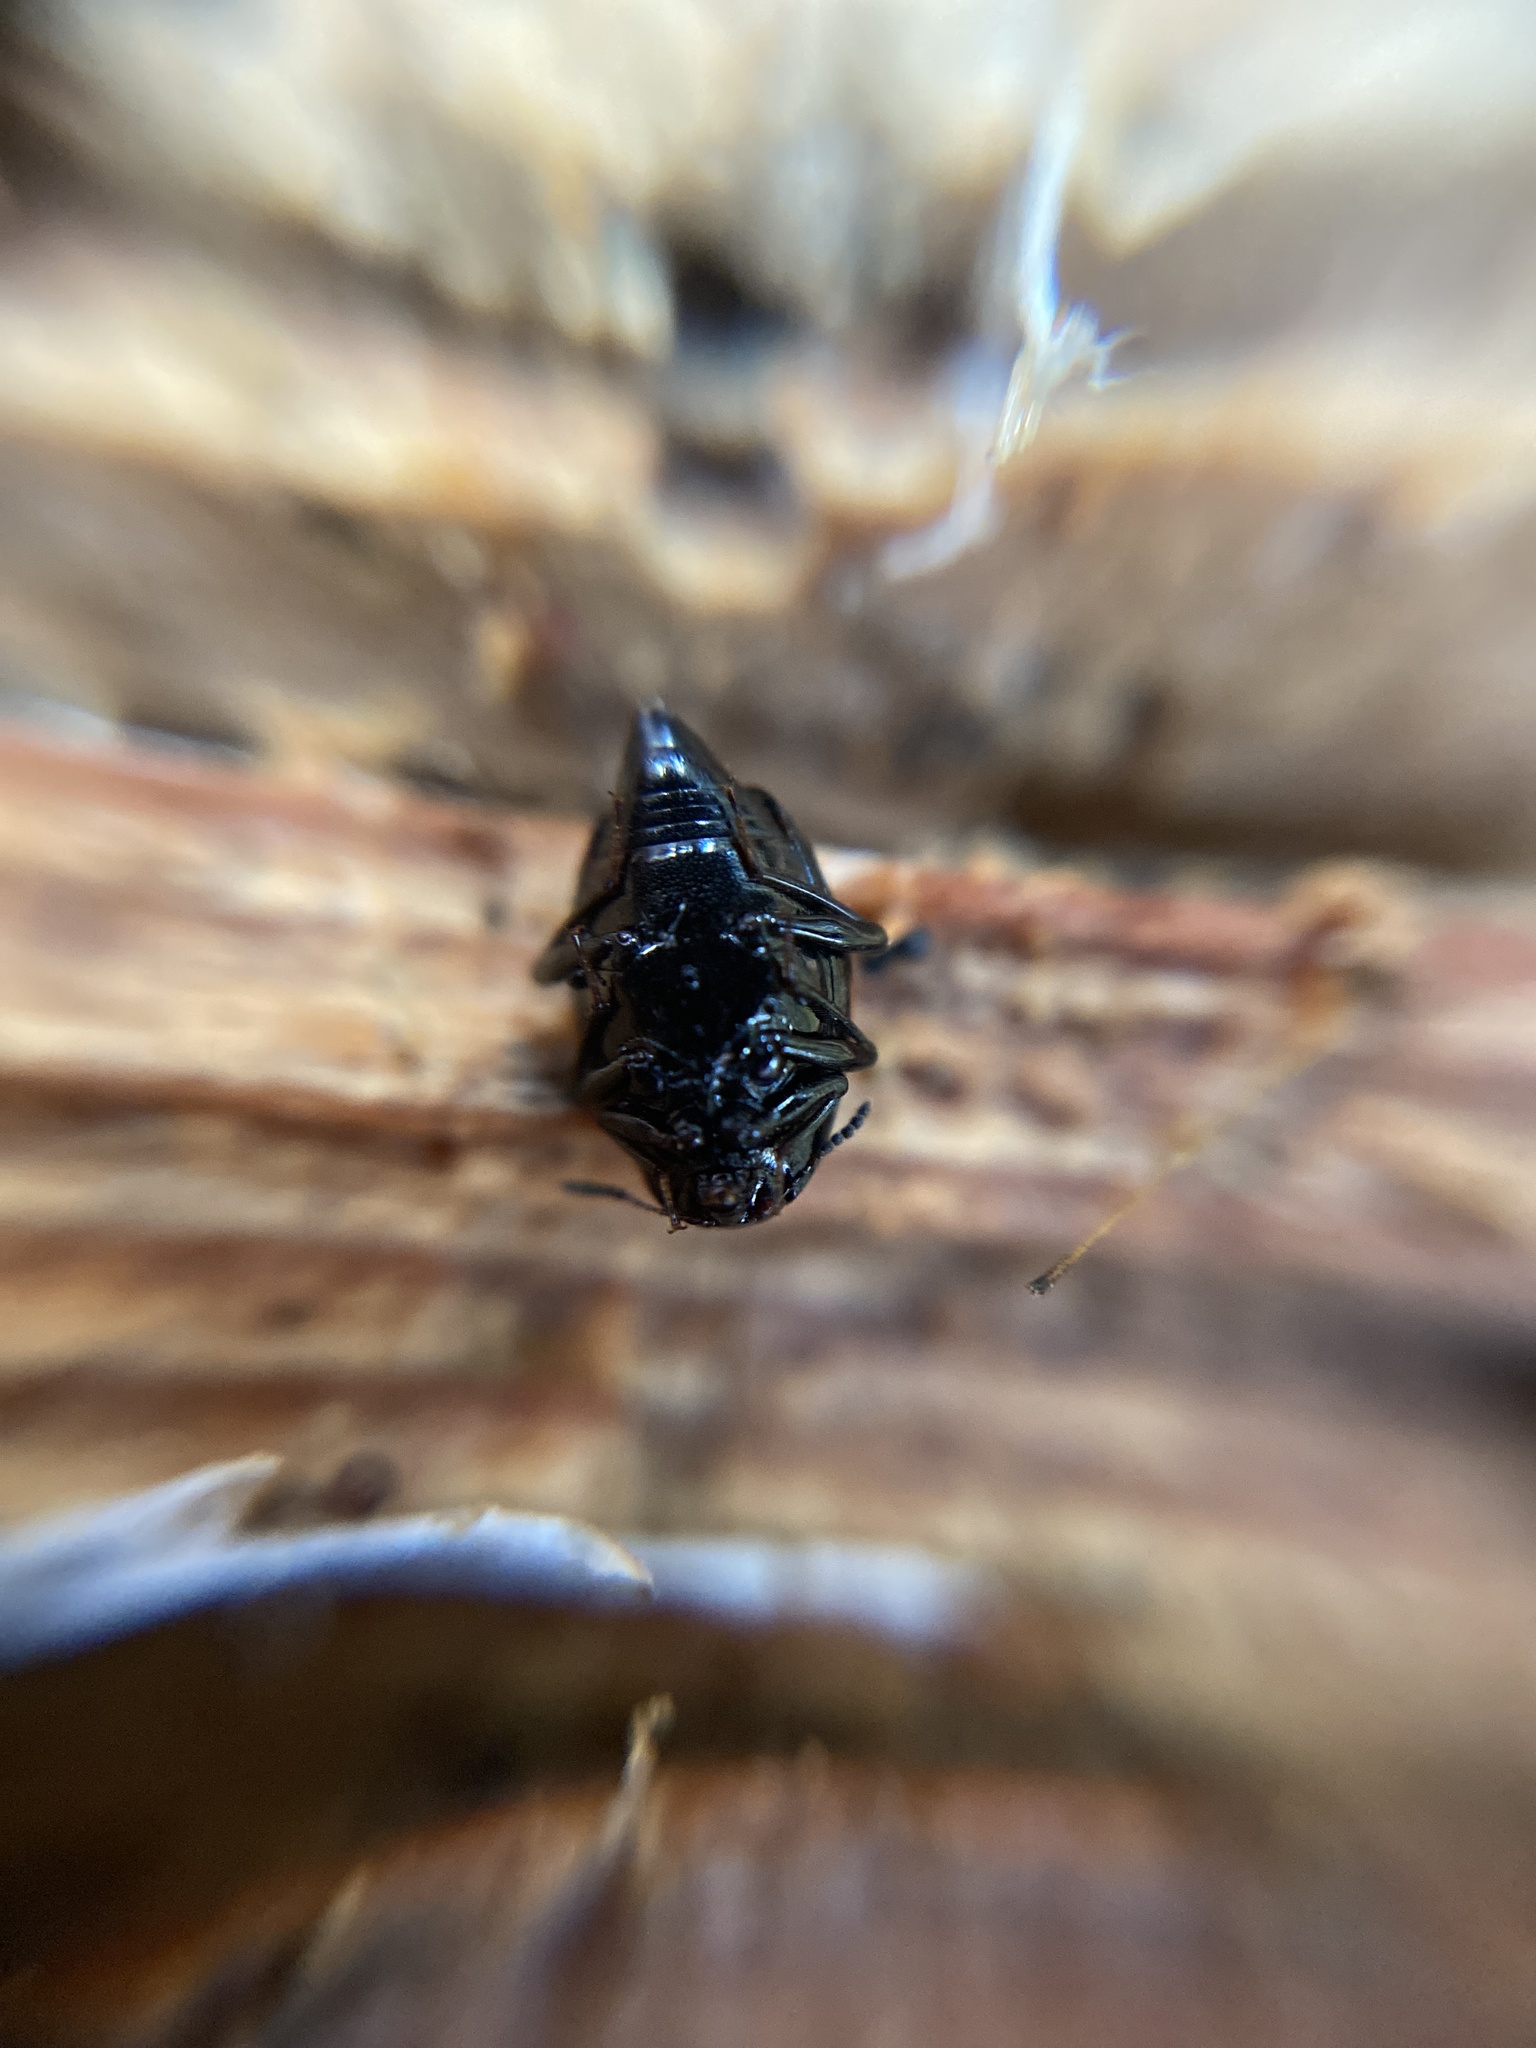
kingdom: Animalia
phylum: Arthropoda
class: Insecta
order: Coleoptera
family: Staphylinidae
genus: Scaphidium
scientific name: Scaphidium quadrimaculatum
